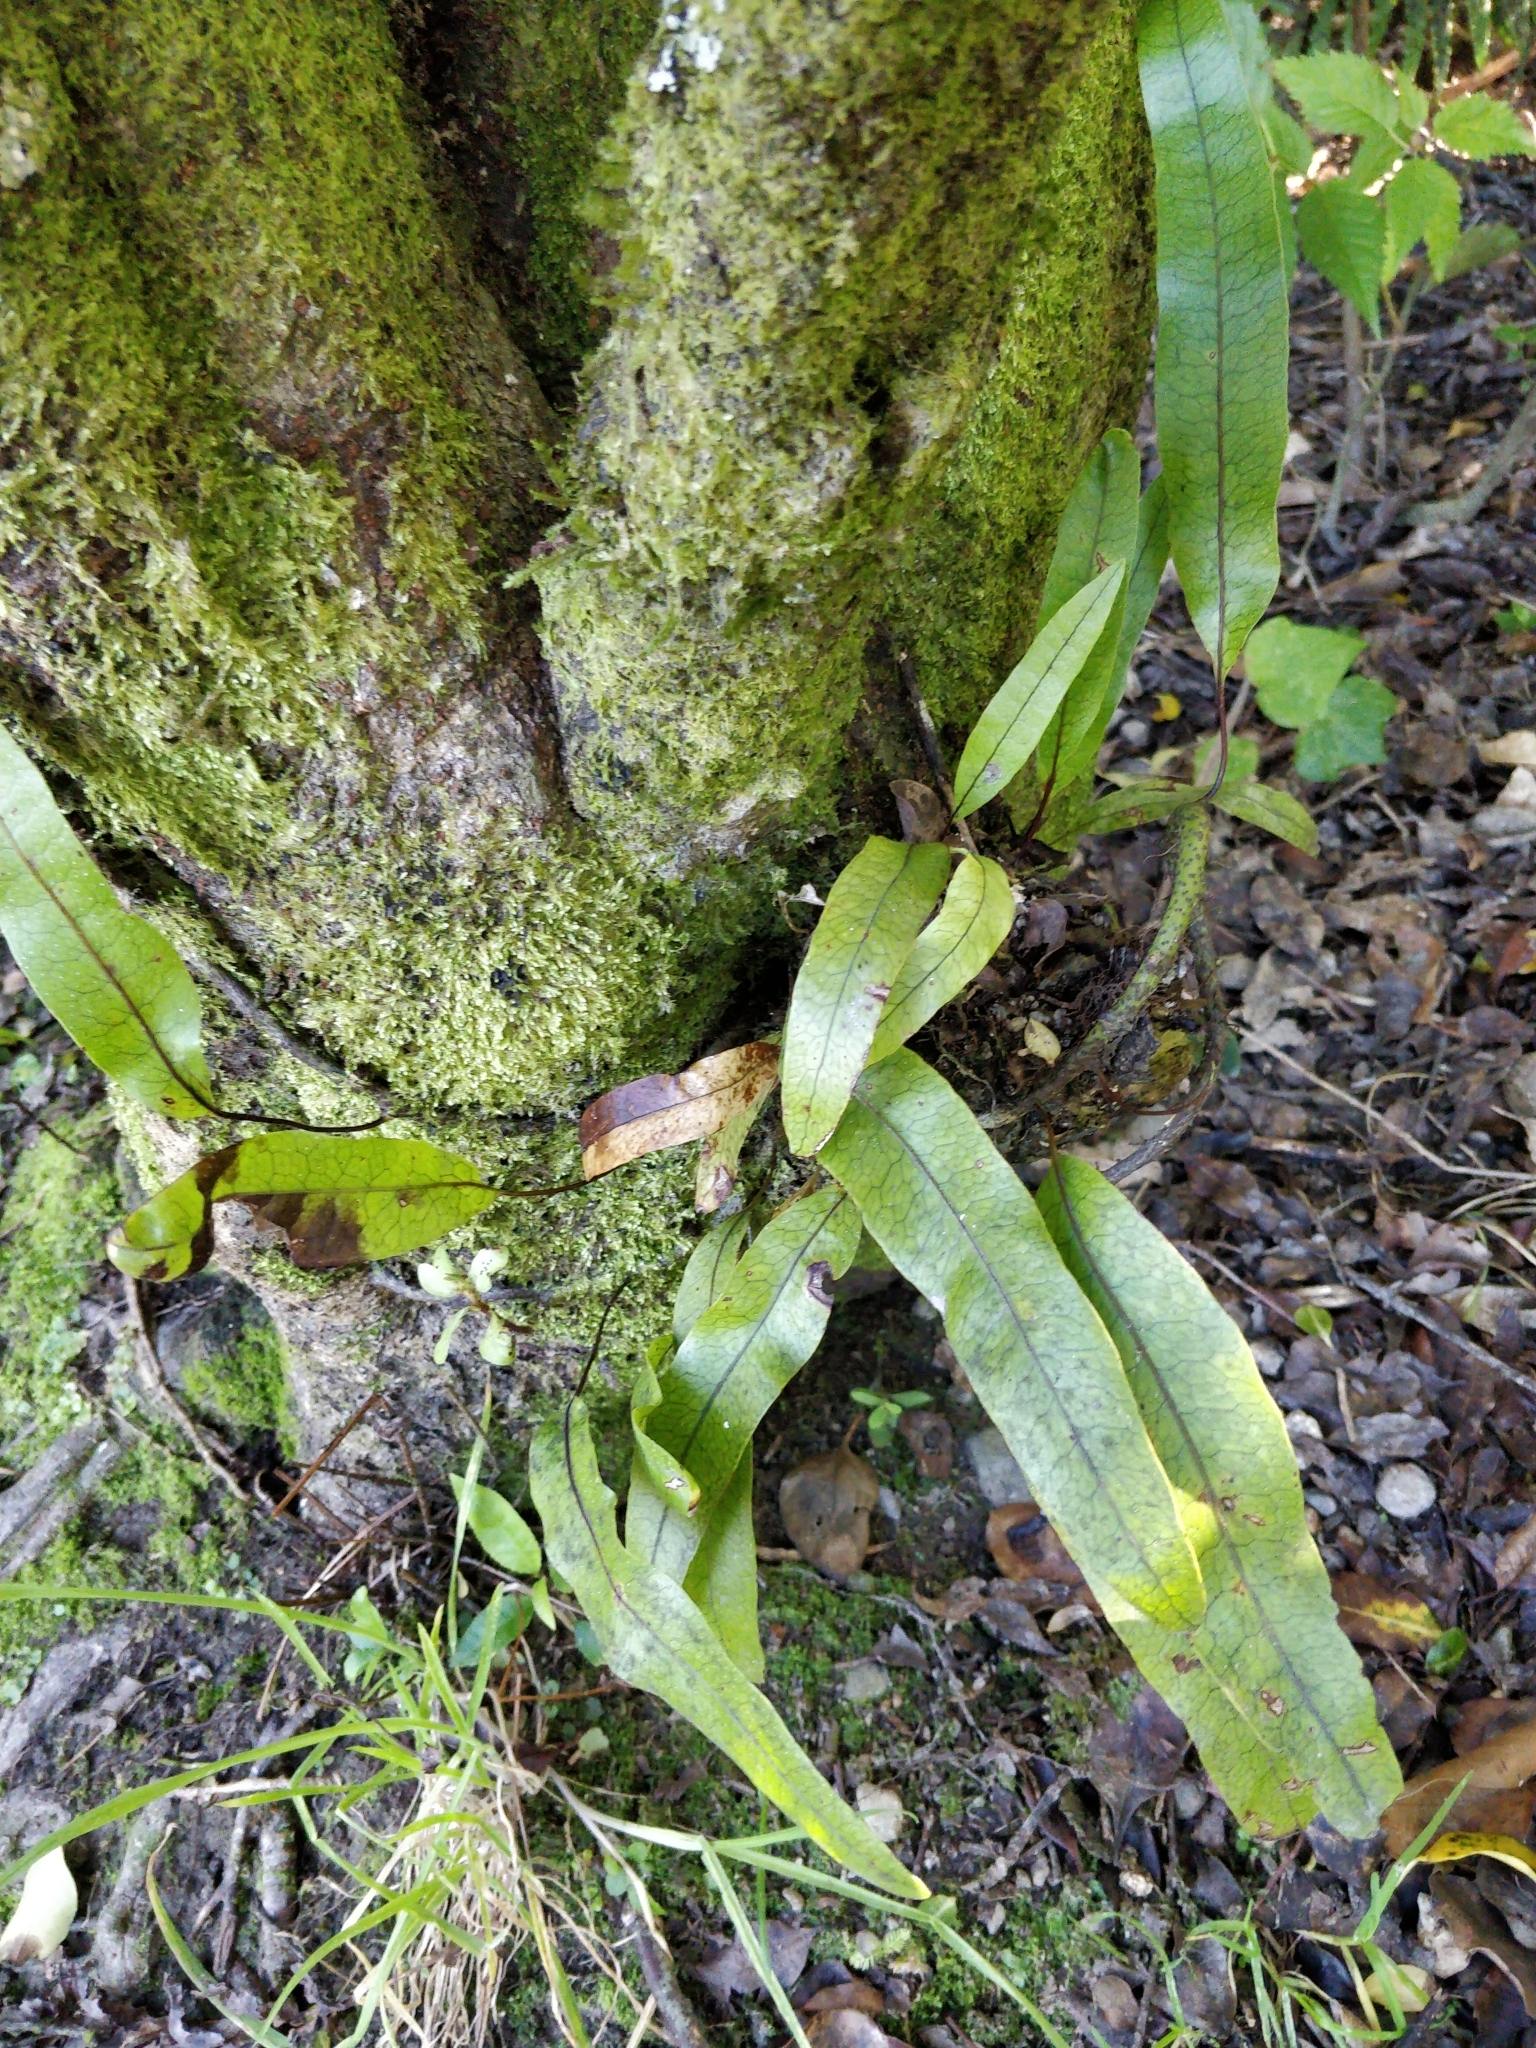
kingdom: Plantae
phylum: Tracheophyta
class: Polypodiopsida
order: Polypodiales
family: Polypodiaceae
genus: Lecanopteris
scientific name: Lecanopteris pustulata
